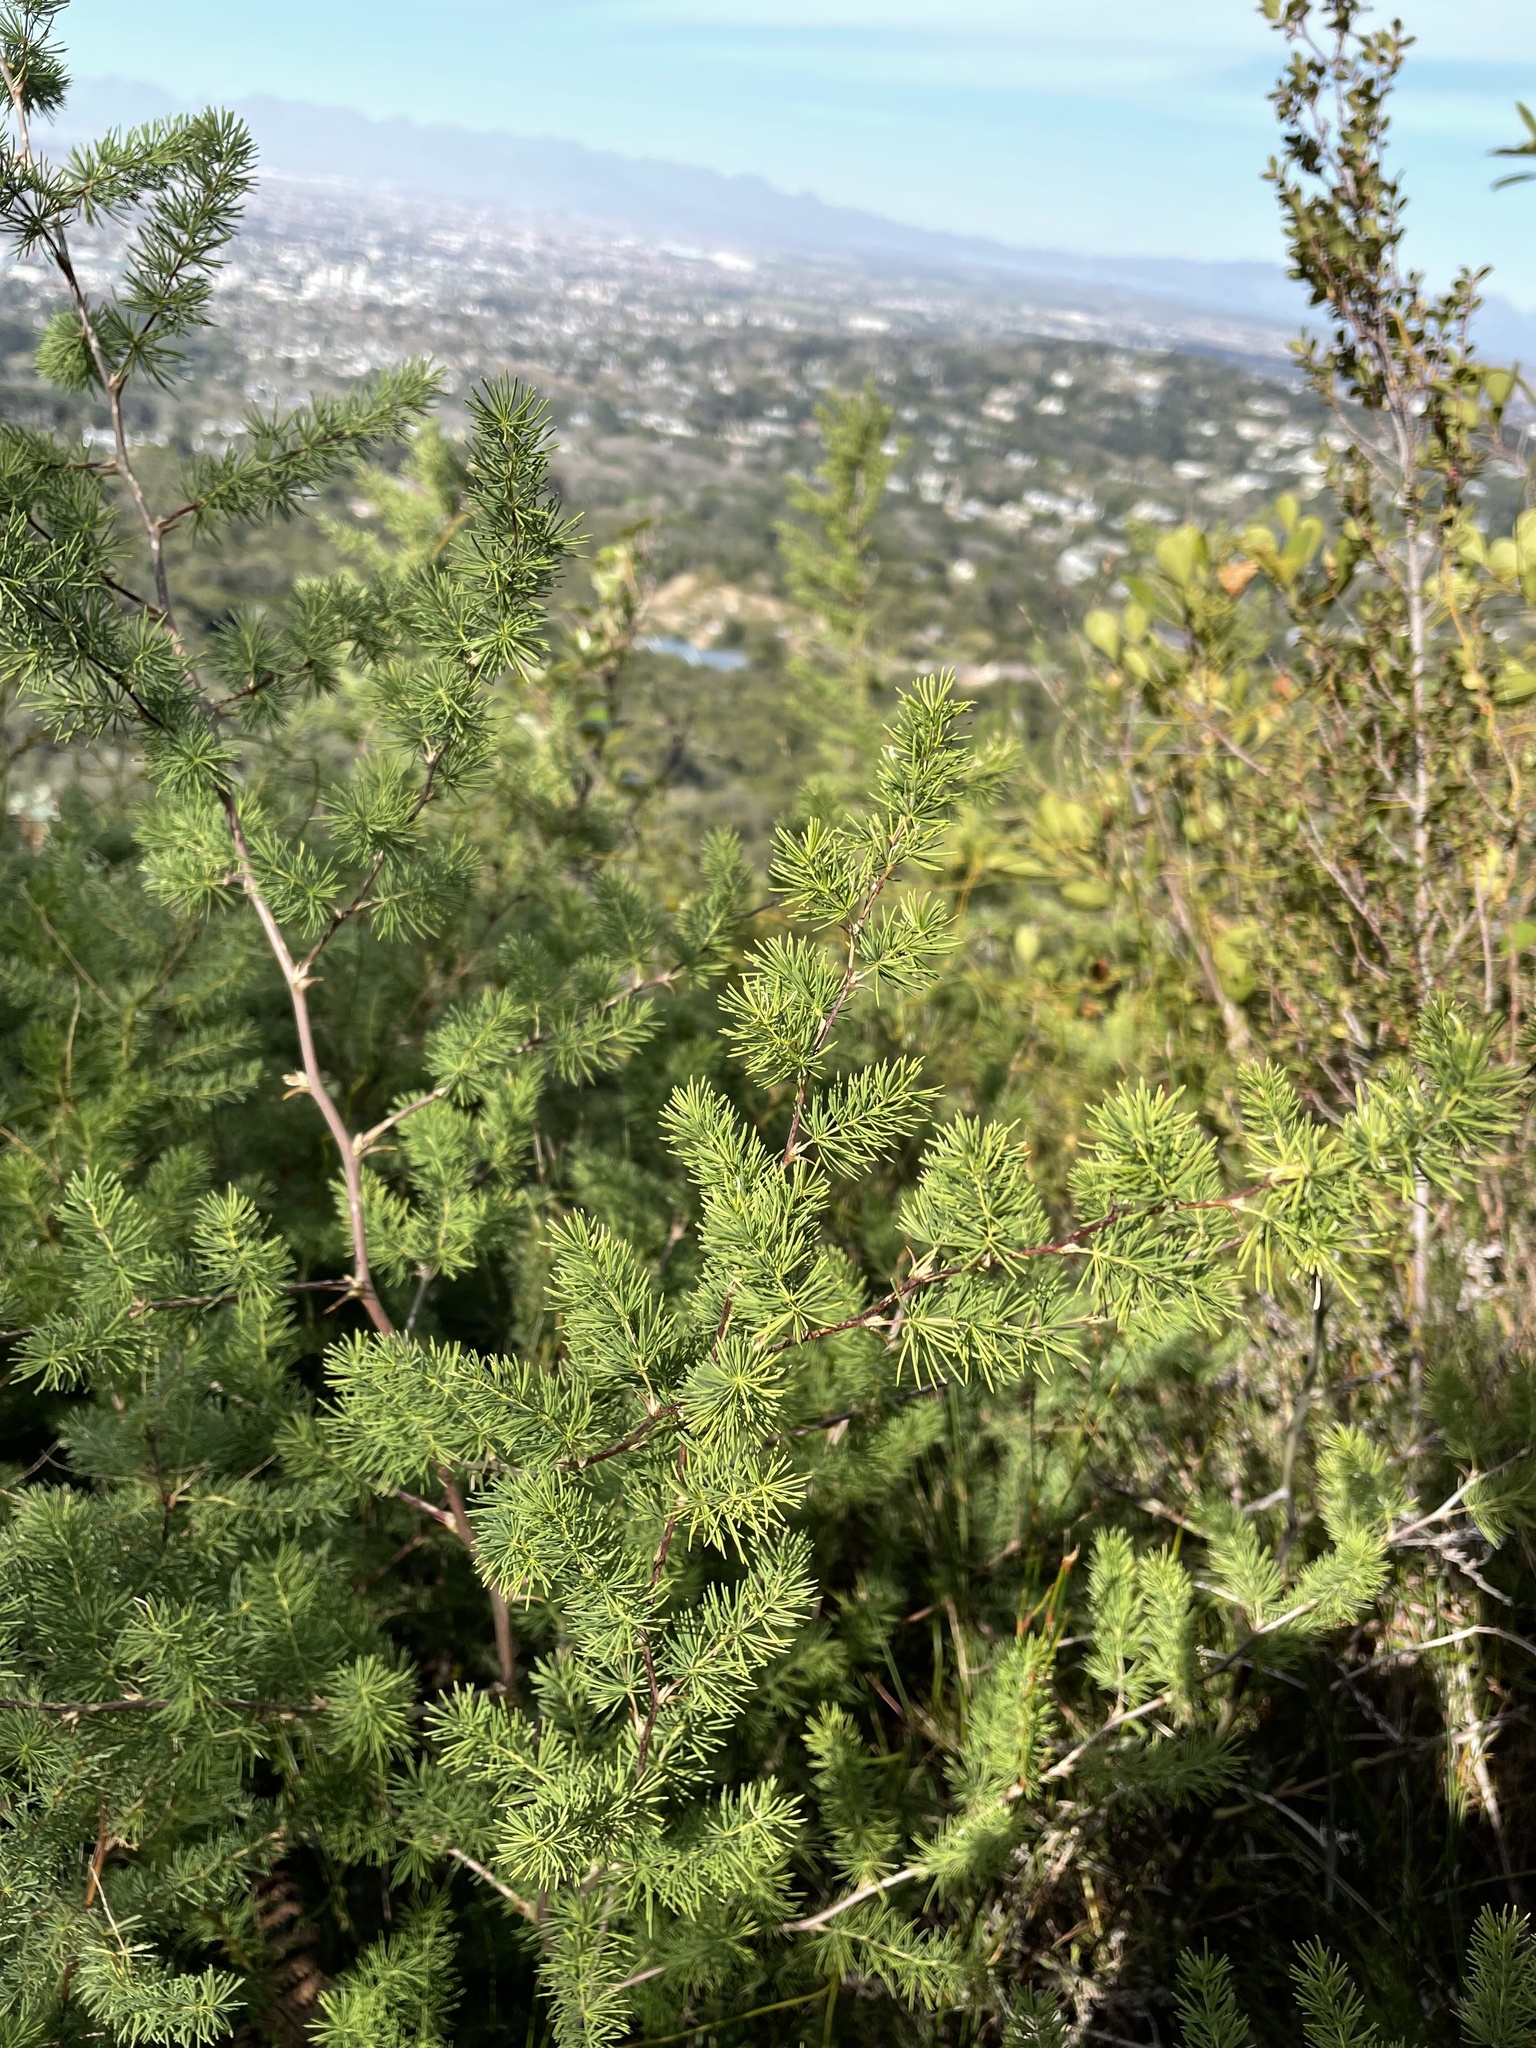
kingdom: Plantae
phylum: Tracheophyta
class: Liliopsida
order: Asparagales
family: Asparagaceae
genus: Asparagus
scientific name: Asparagus rubicundus
